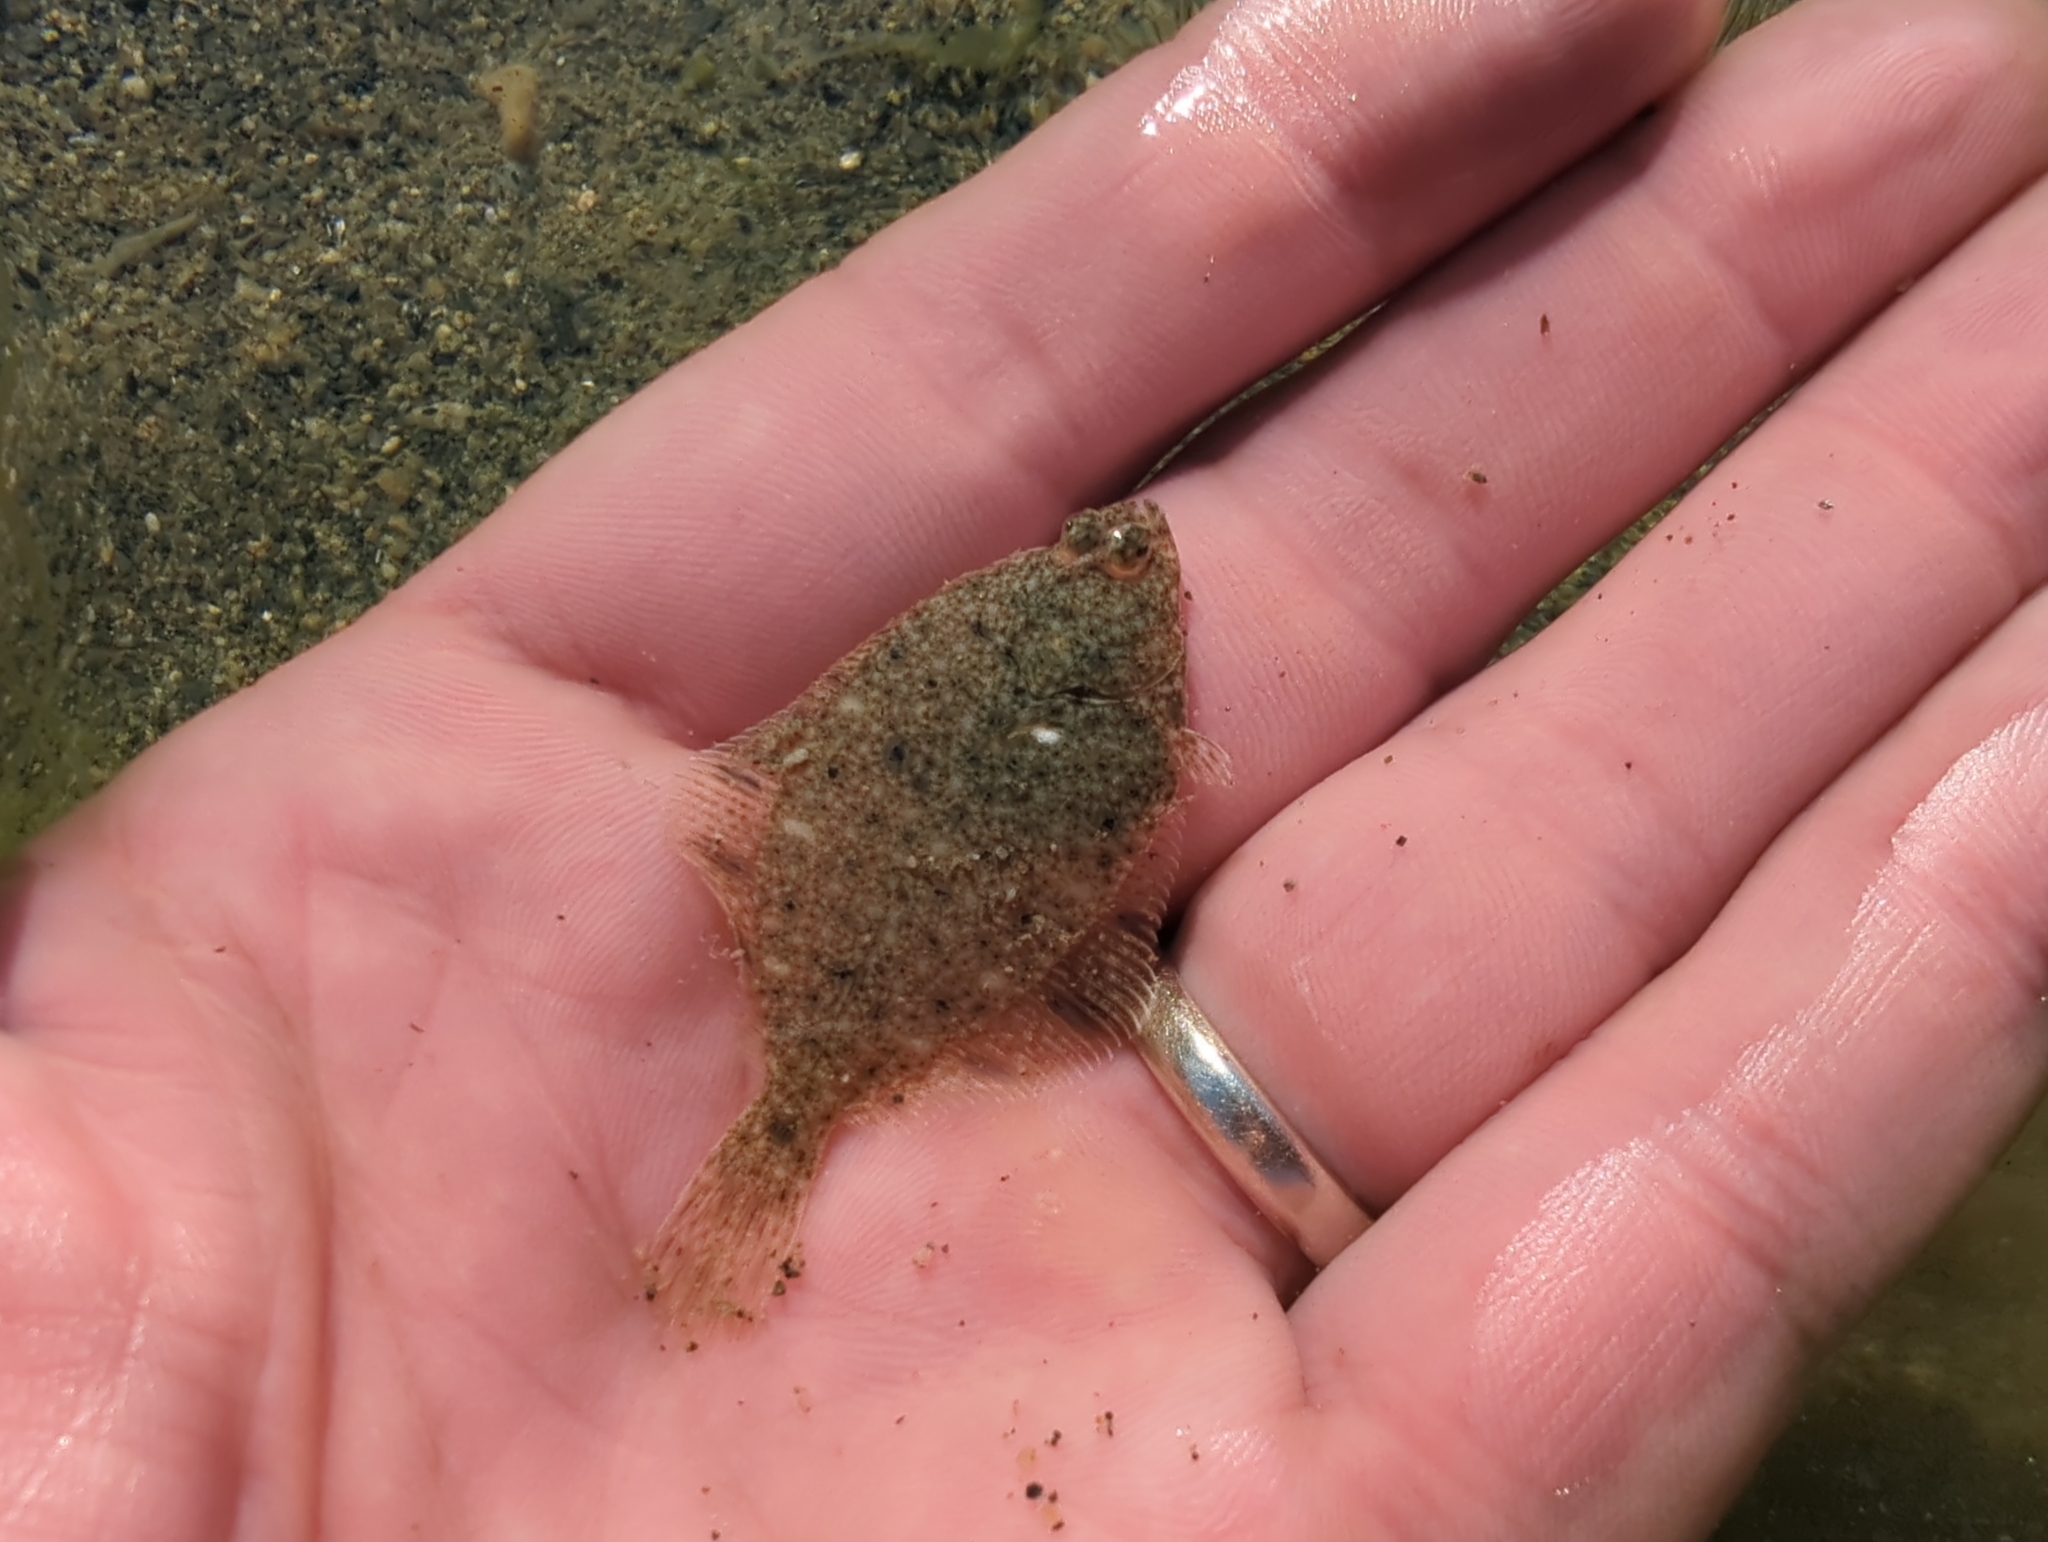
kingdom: Animalia
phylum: Chordata
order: Pleuronectiformes
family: Pleuronectidae
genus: Platichthys
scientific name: Platichthys stellatus
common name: Starry flounder
